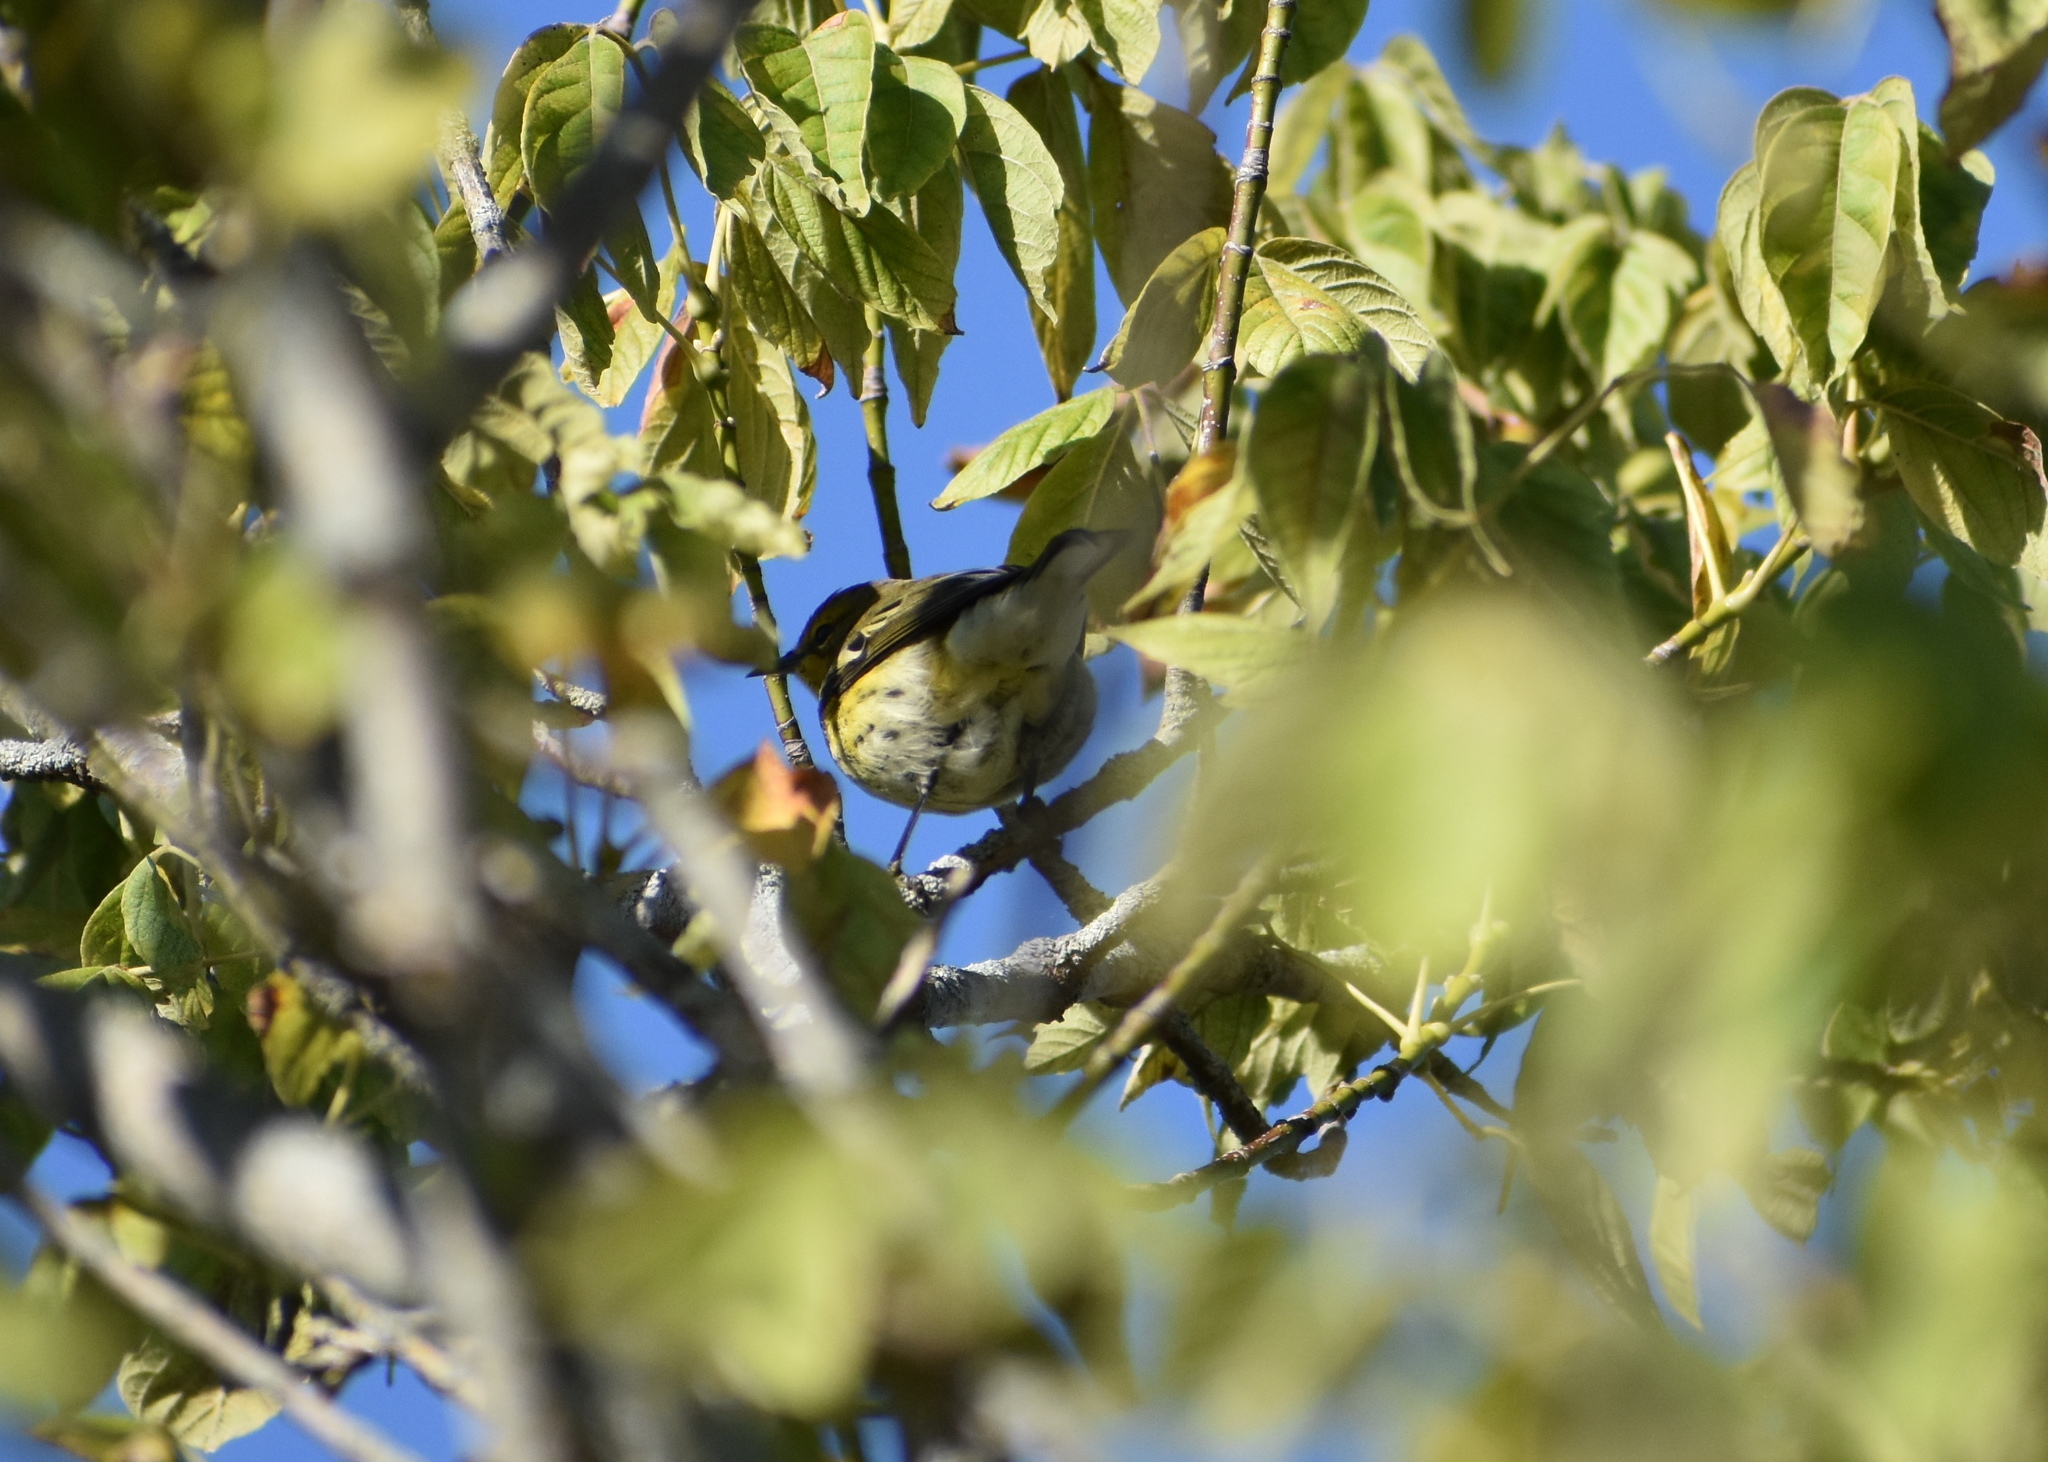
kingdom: Animalia
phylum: Chordata
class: Aves
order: Passeriformes
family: Parulidae
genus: Setophaga
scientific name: Setophaga tigrina
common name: Cape may warbler
